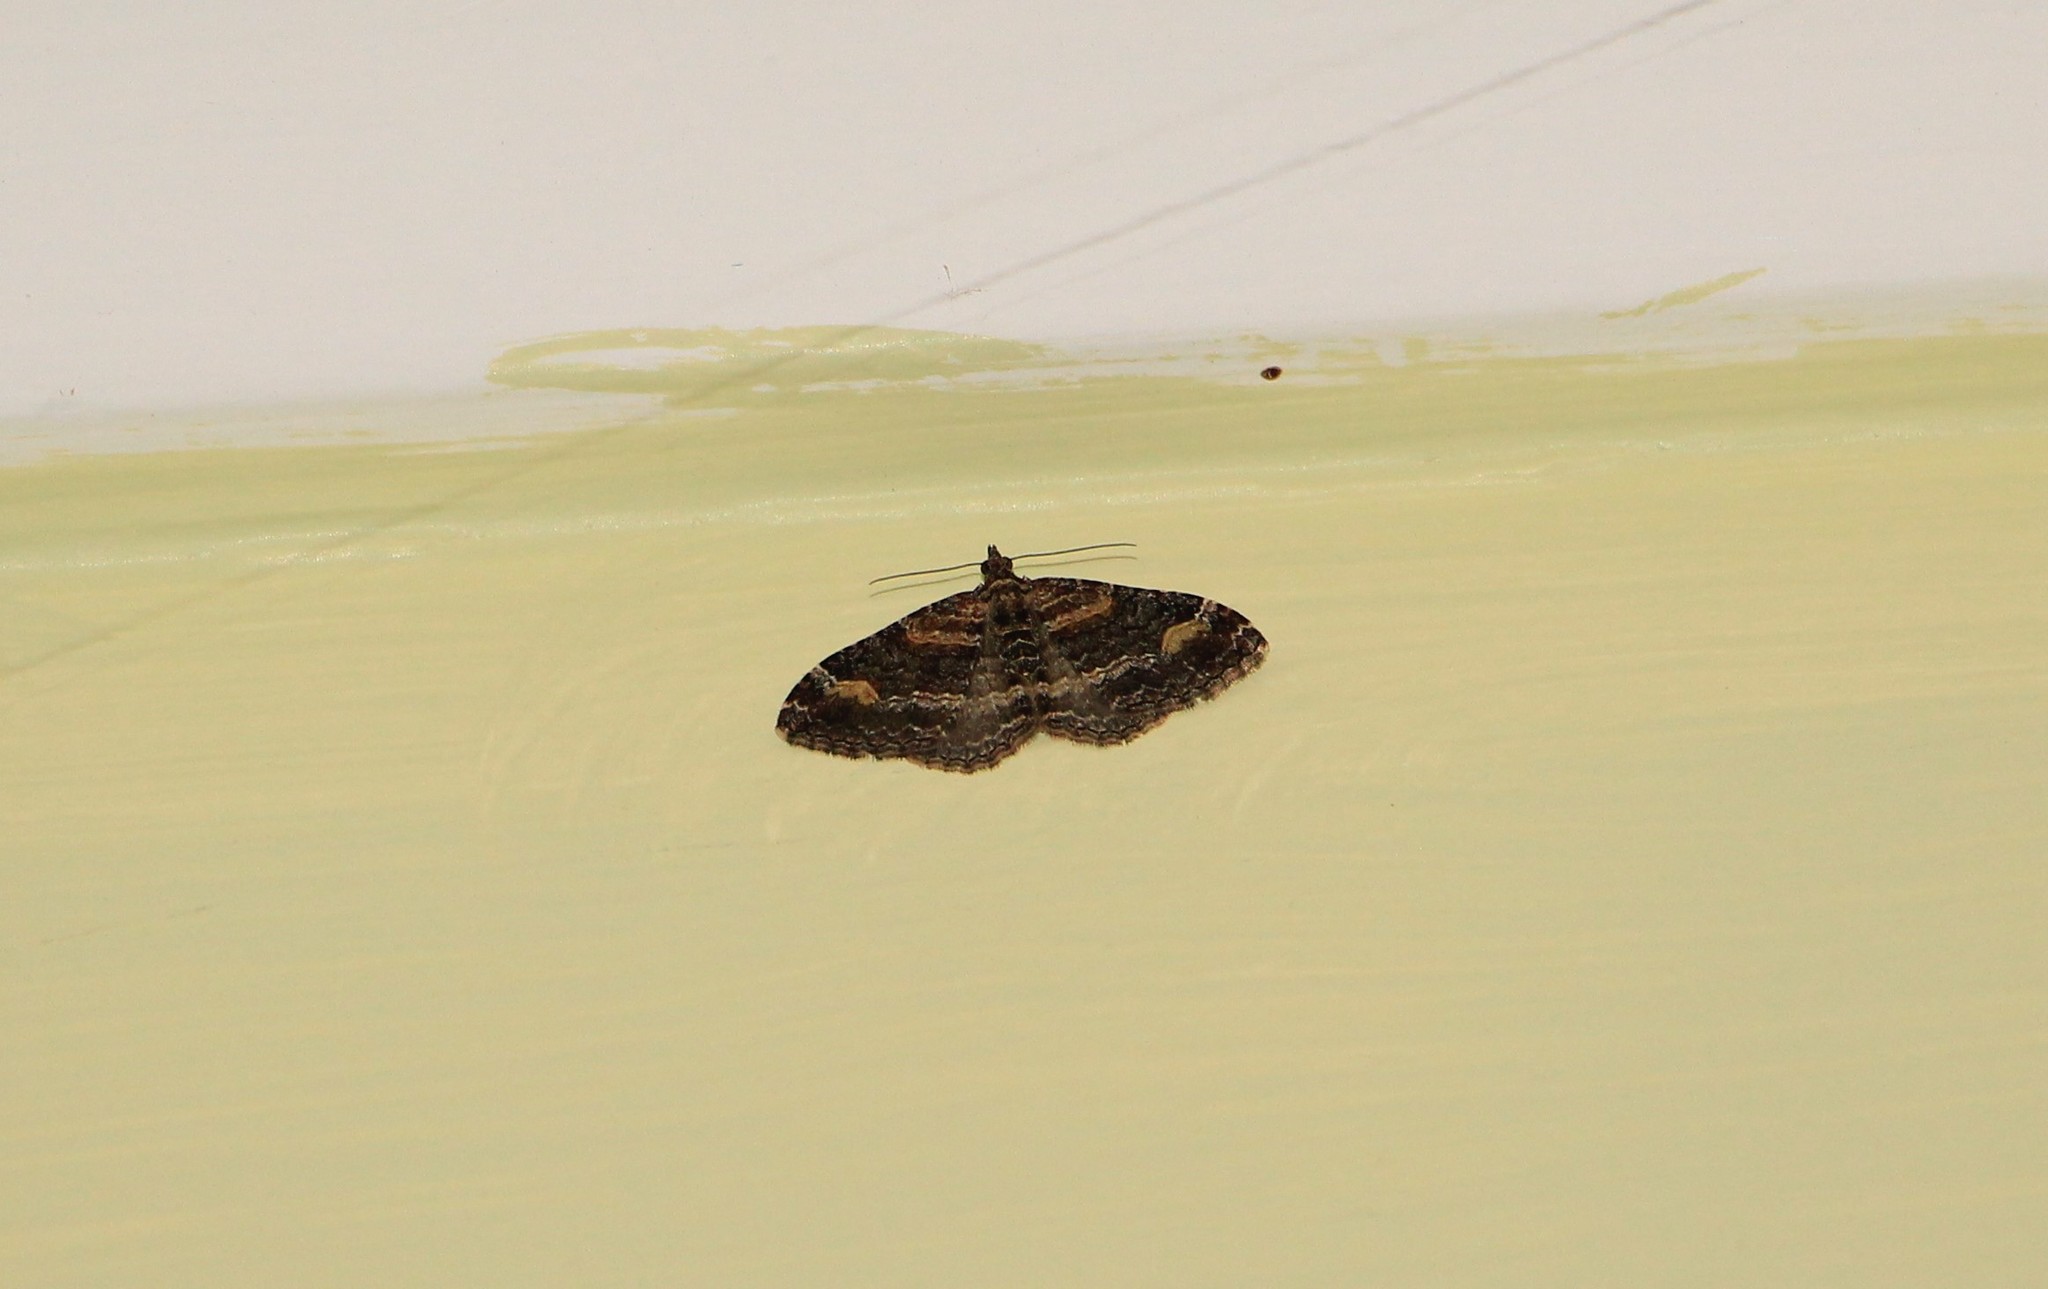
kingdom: Animalia
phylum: Arthropoda
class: Insecta
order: Lepidoptera
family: Geometridae
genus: Epyaxa
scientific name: Epyaxa lucidata
